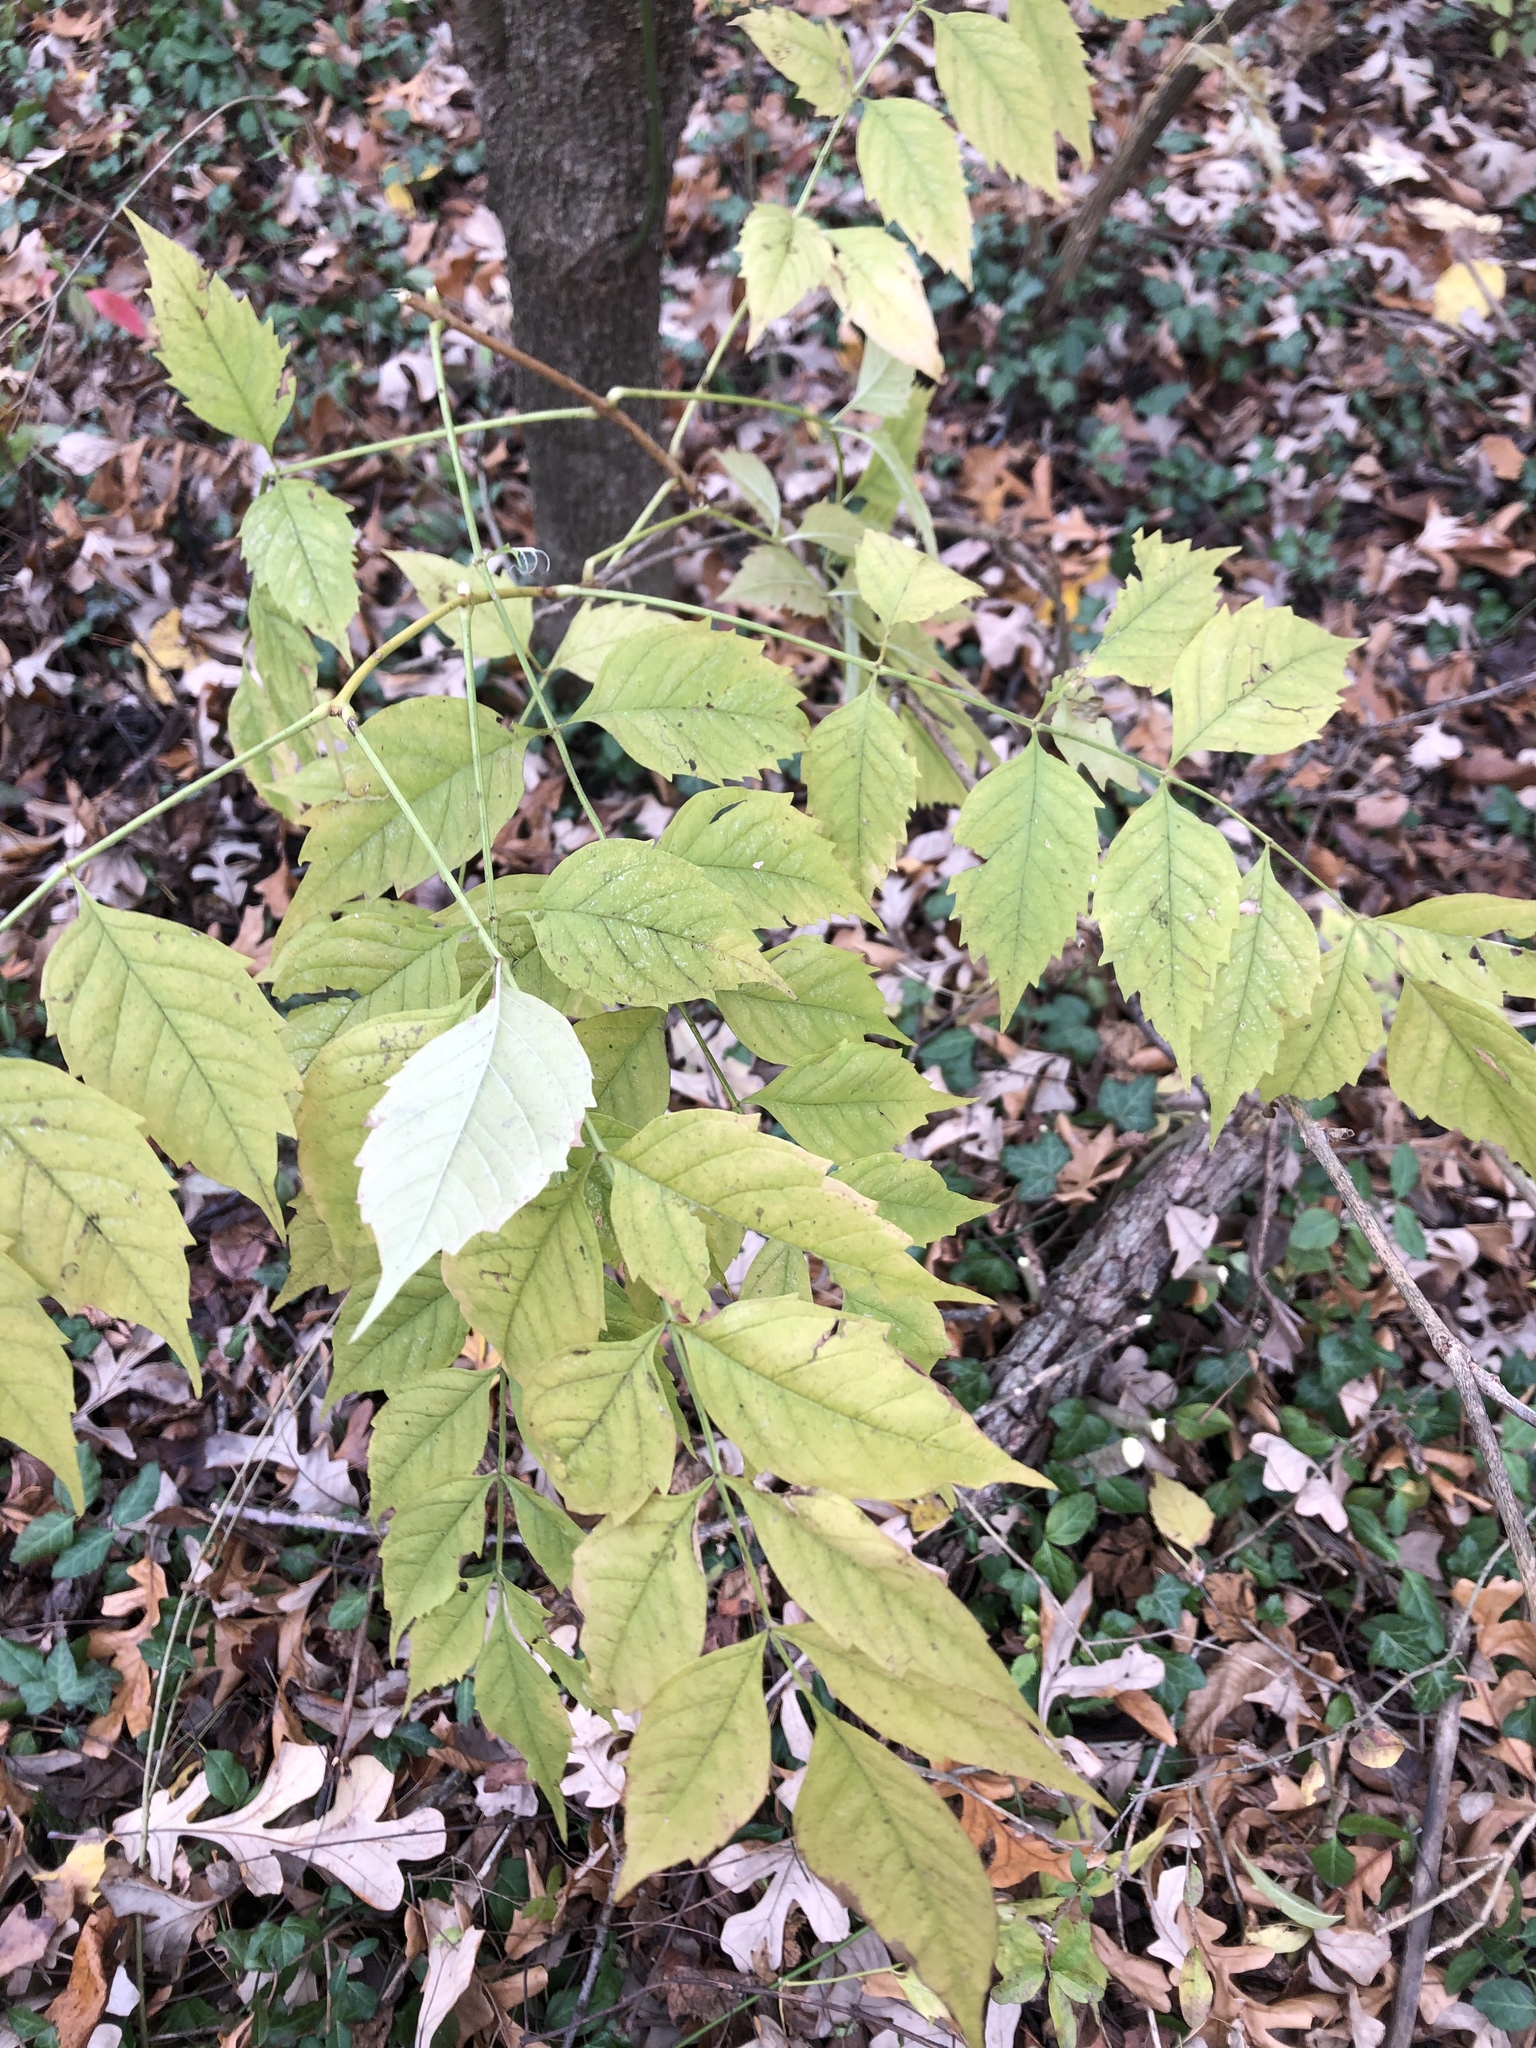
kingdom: Plantae
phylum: Tracheophyta
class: Magnoliopsida
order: Lamiales
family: Bignoniaceae
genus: Campsis
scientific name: Campsis radicans
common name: Trumpet-creeper
